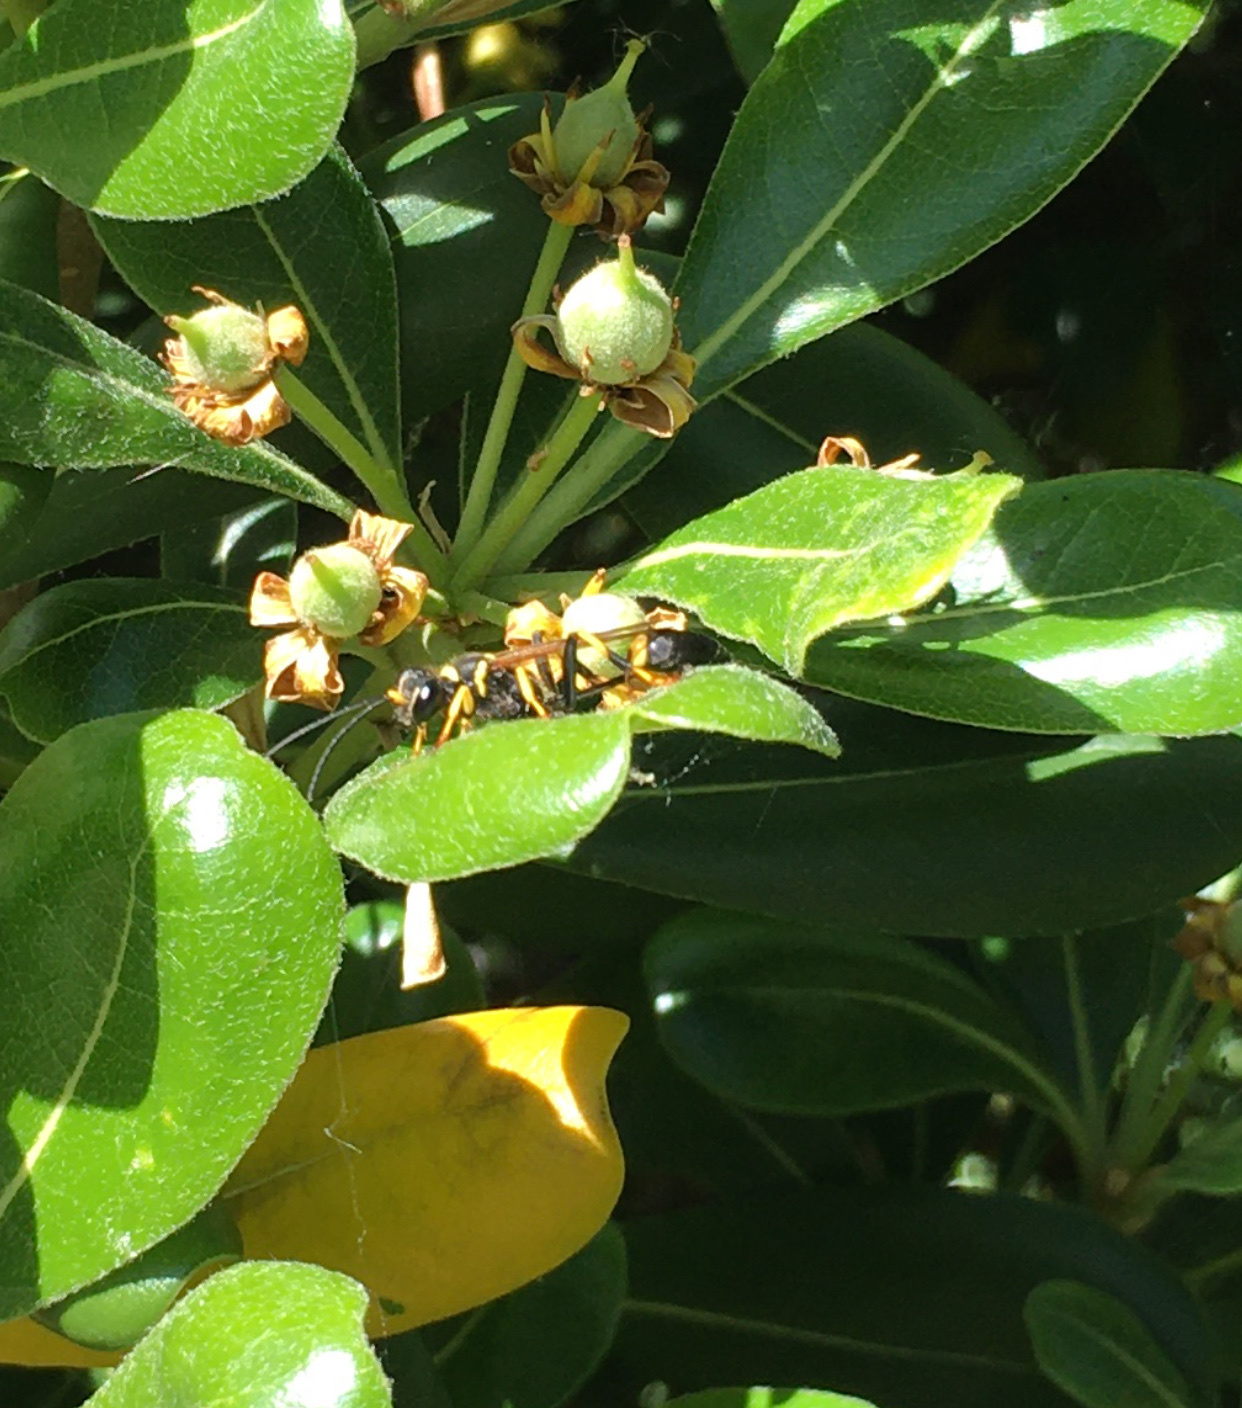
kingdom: Animalia
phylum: Arthropoda
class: Insecta
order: Hymenoptera
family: Sphecidae
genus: Sceliphron
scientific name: Sceliphron caementarium
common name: Mud dauber
